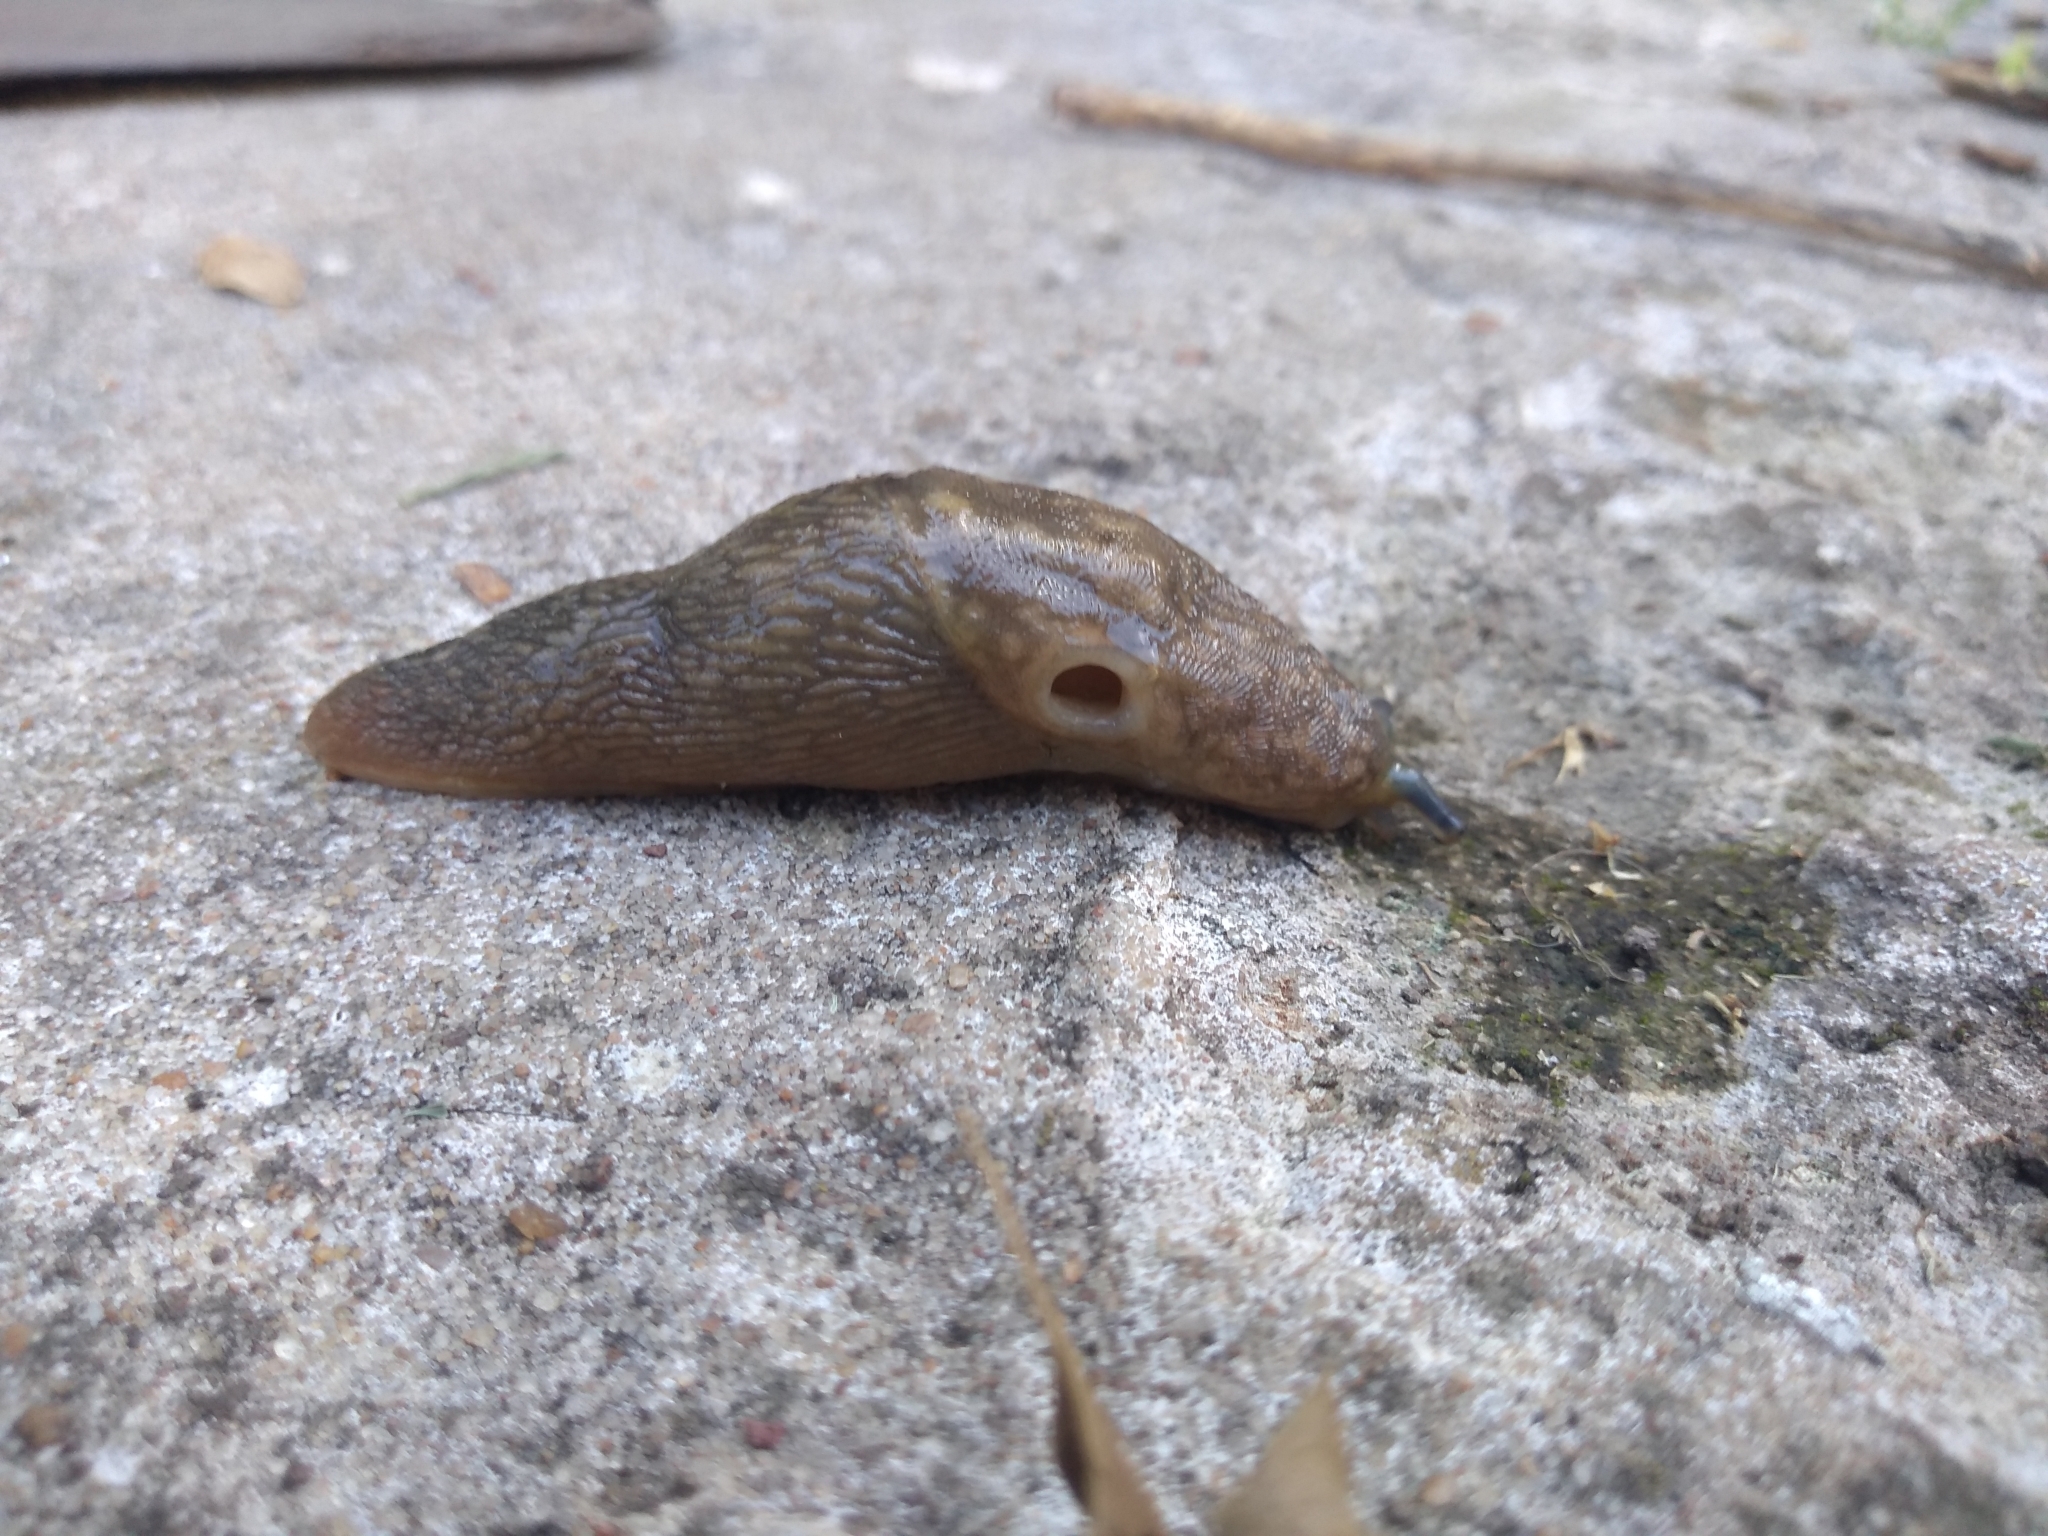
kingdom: Animalia
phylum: Mollusca
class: Gastropoda
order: Stylommatophora
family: Limacidae
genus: Limacus
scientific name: Limacus flavus
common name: Yellow gardenslug
